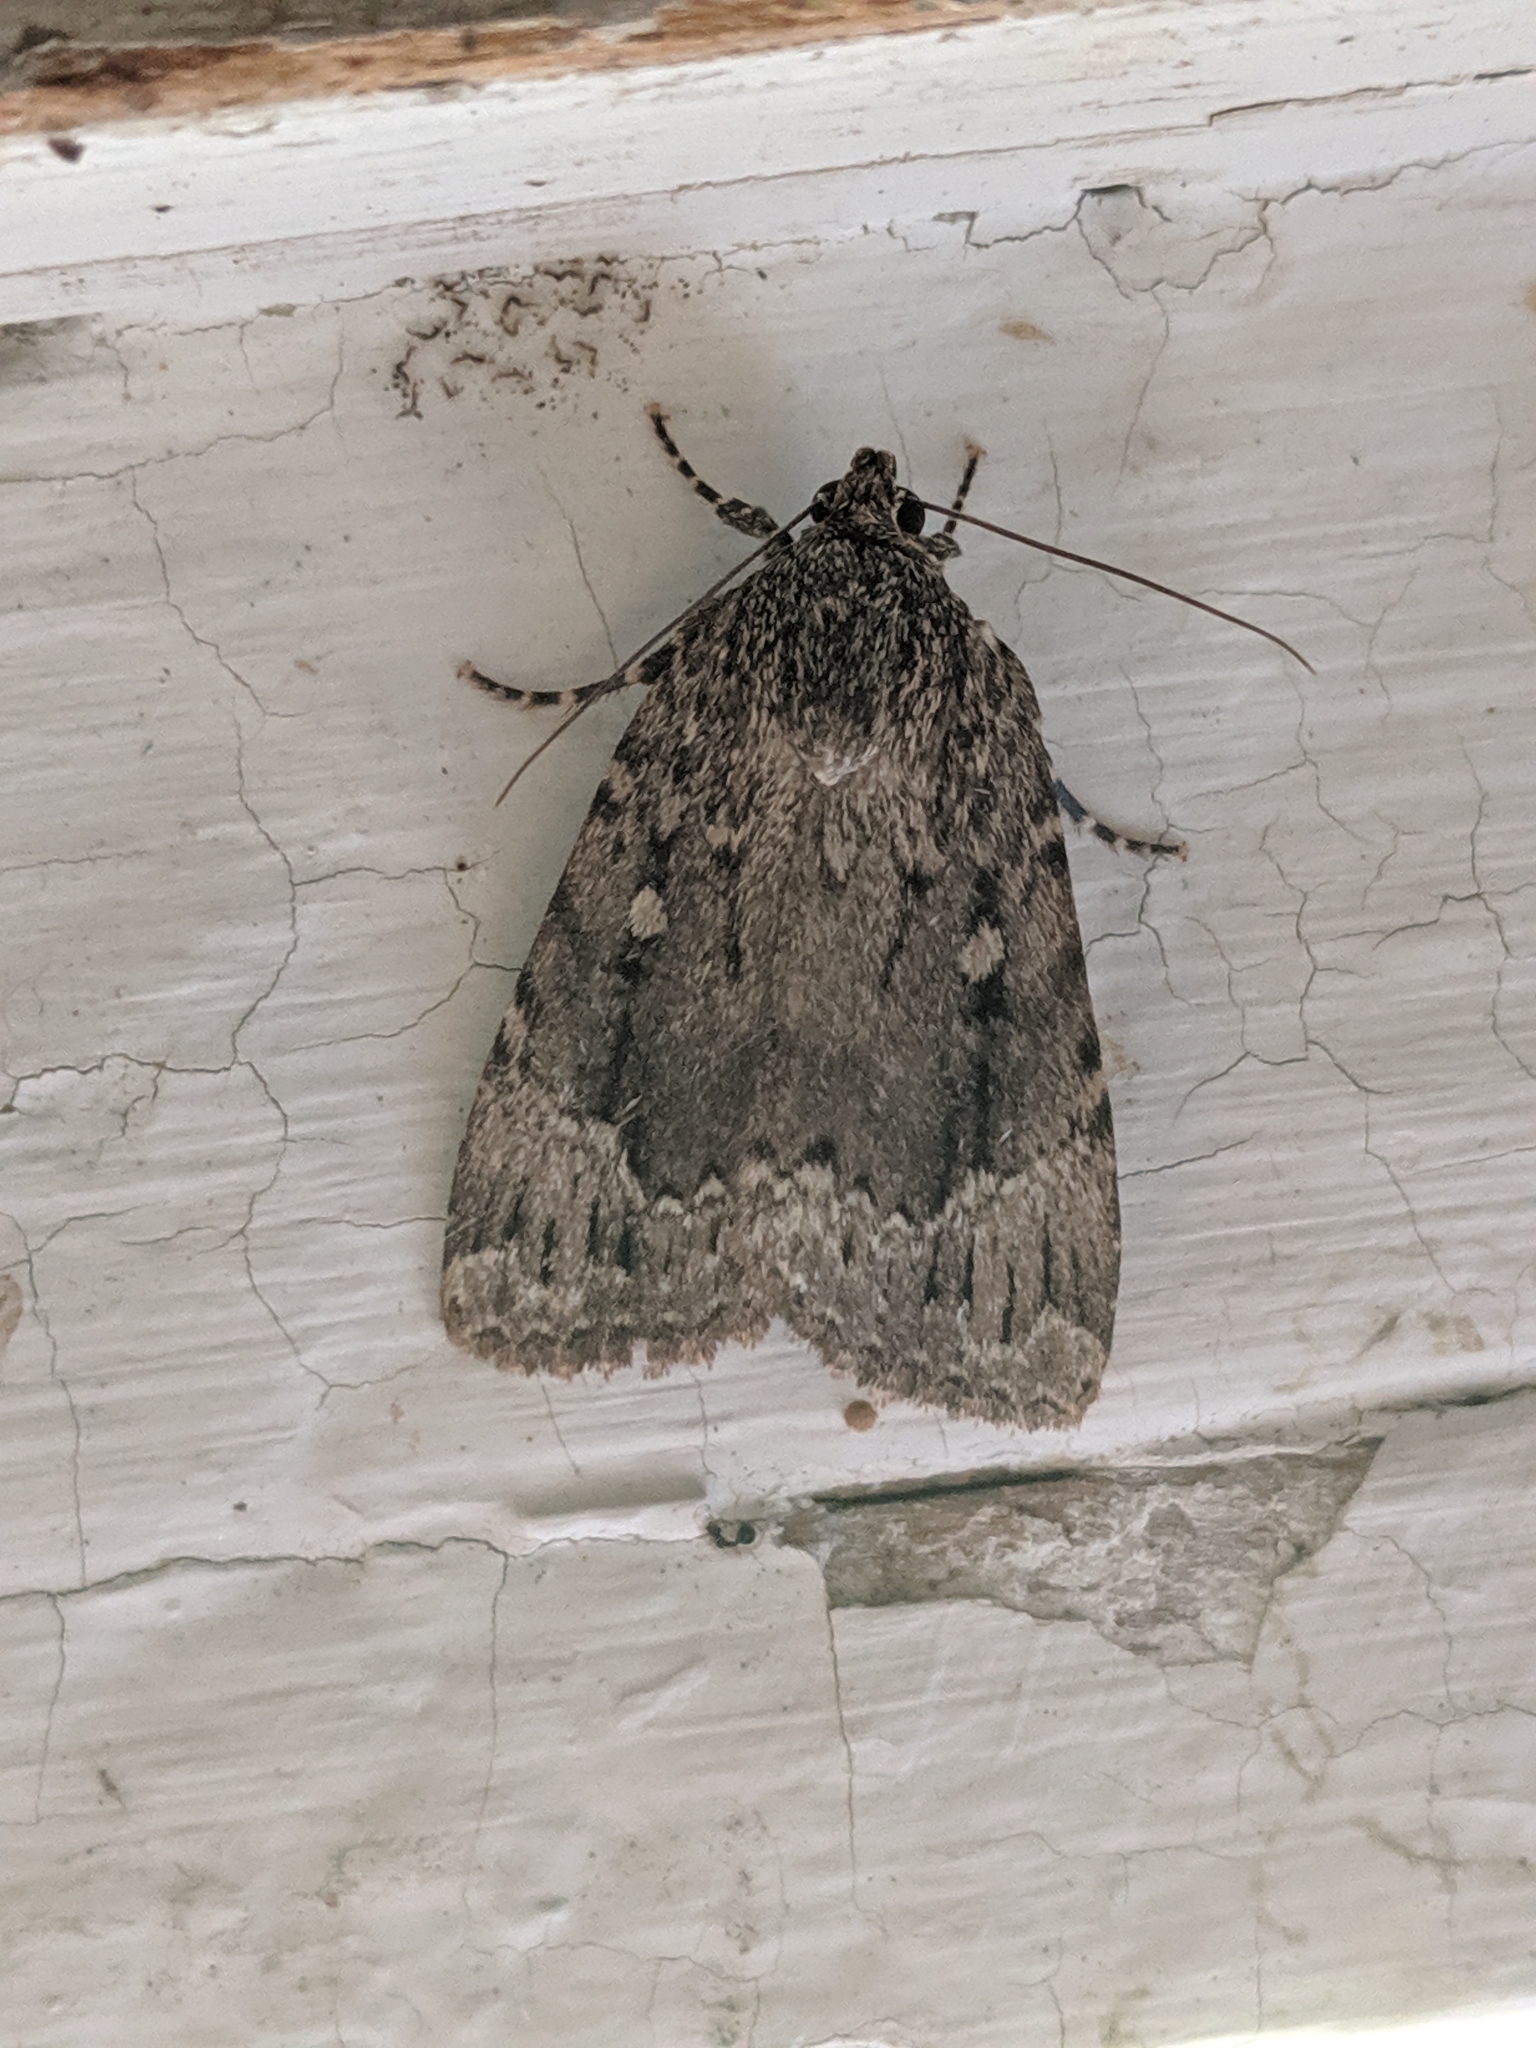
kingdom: Animalia
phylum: Arthropoda
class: Insecta
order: Lepidoptera
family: Noctuidae
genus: Amphipyra
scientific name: Amphipyra pyramidoides
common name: American copper underwing
